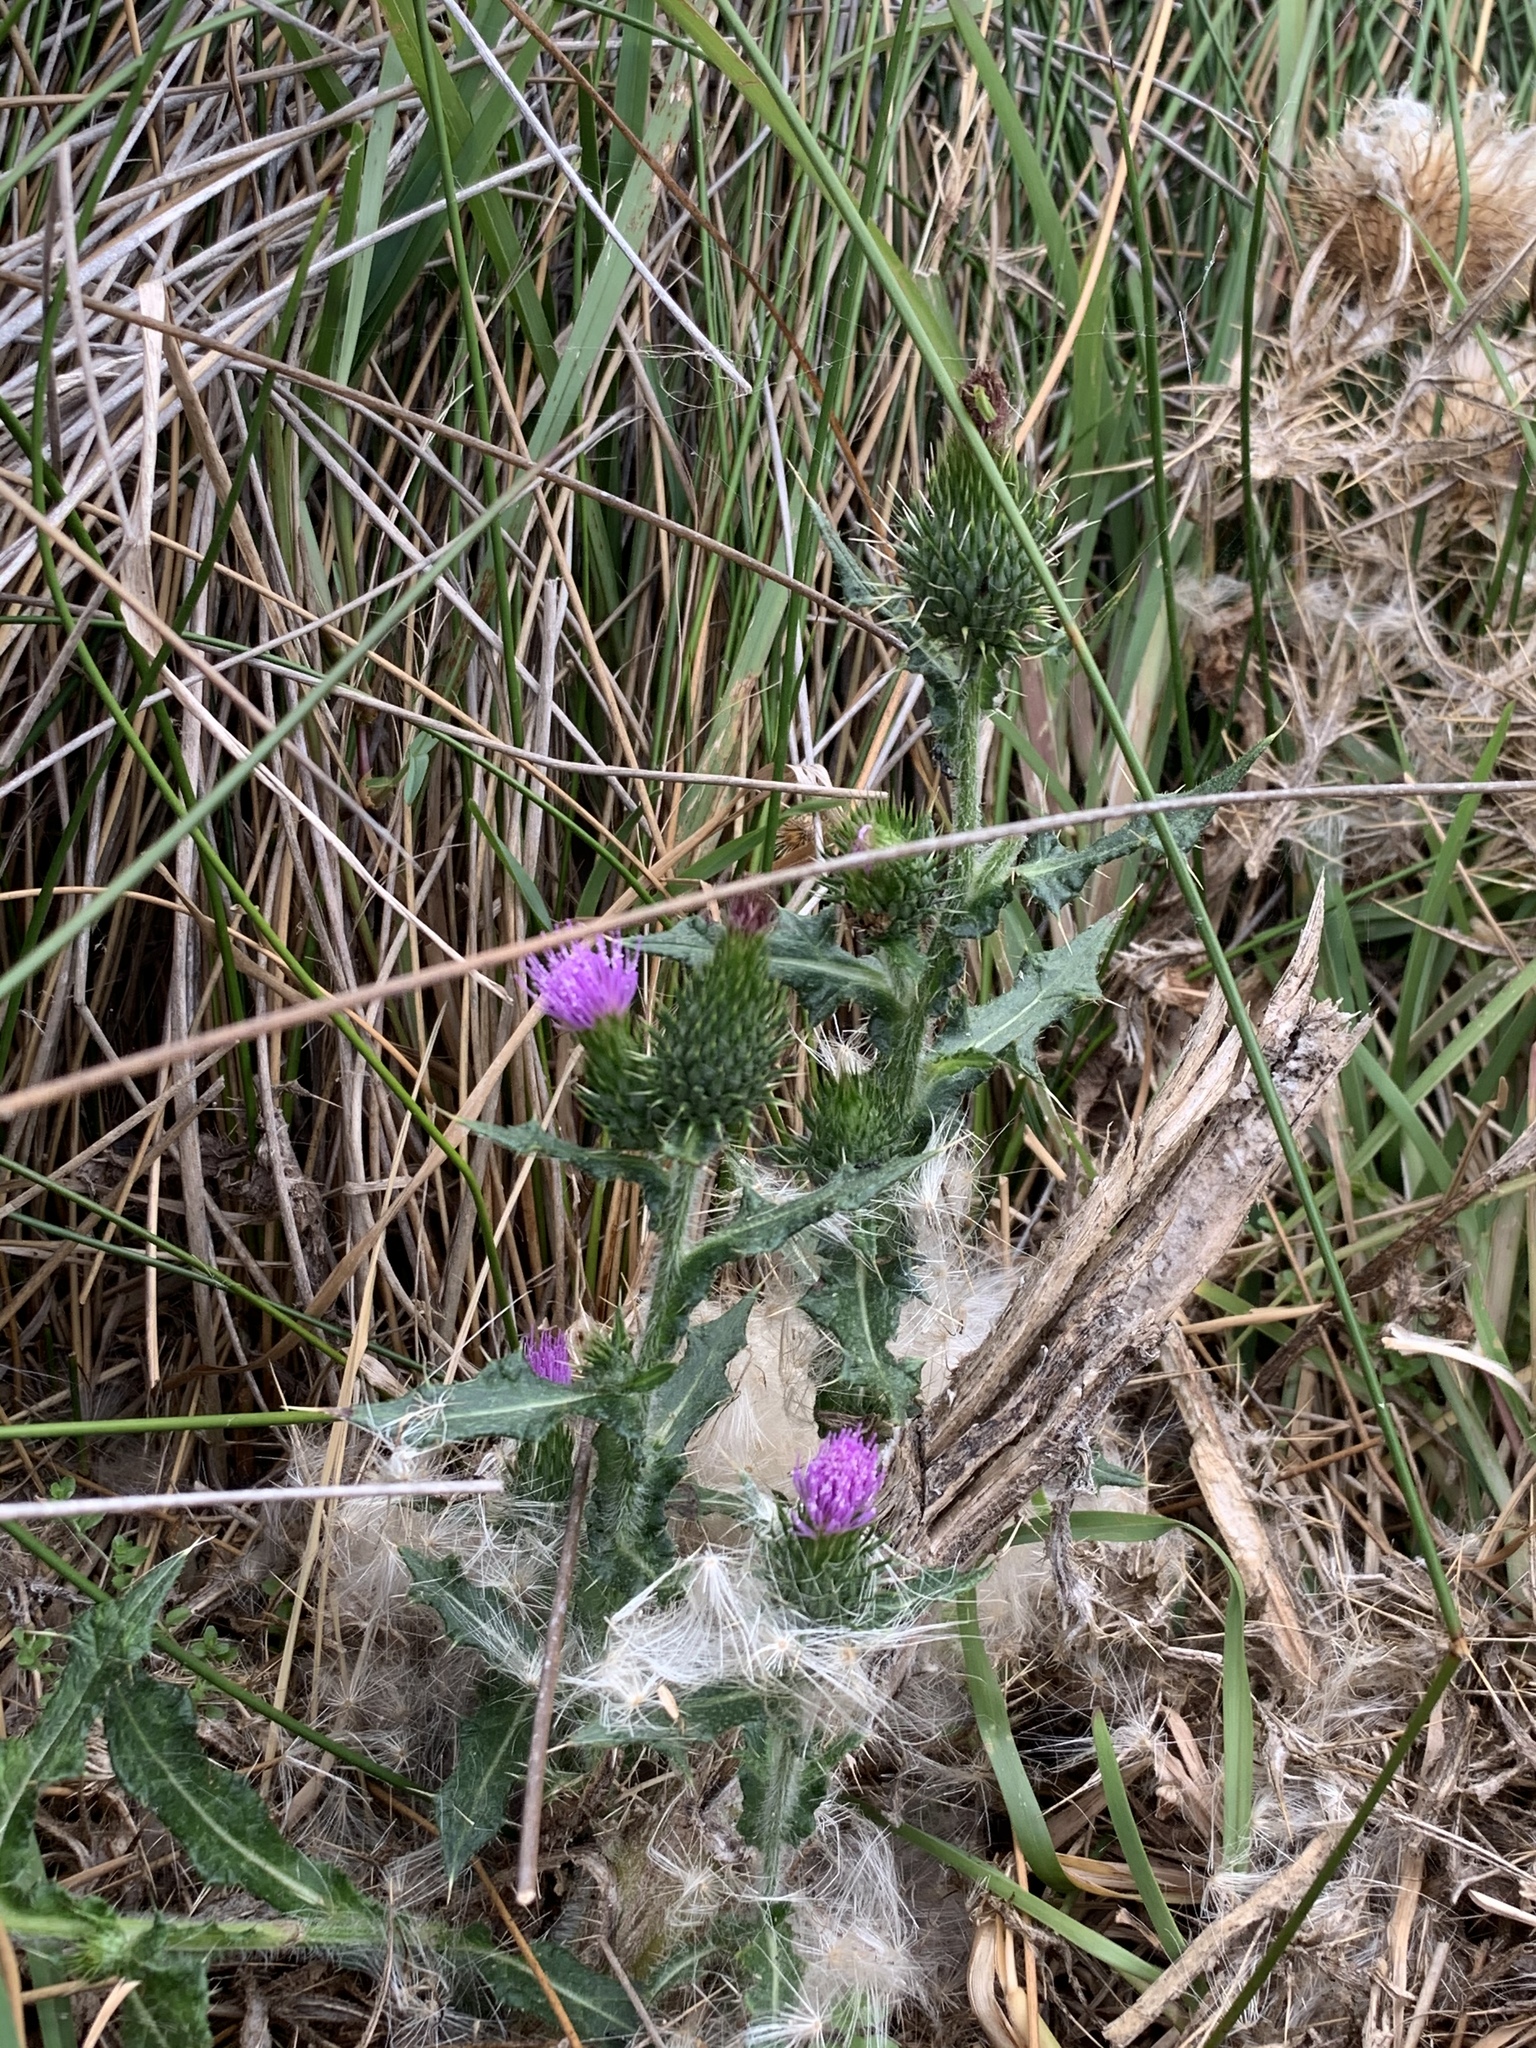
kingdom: Plantae
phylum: Tracheophyta
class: Magnoliopsida
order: Asterales
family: Asteraceae
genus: Cirsium
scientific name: Cirsium vulgare
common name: Bull thistle
